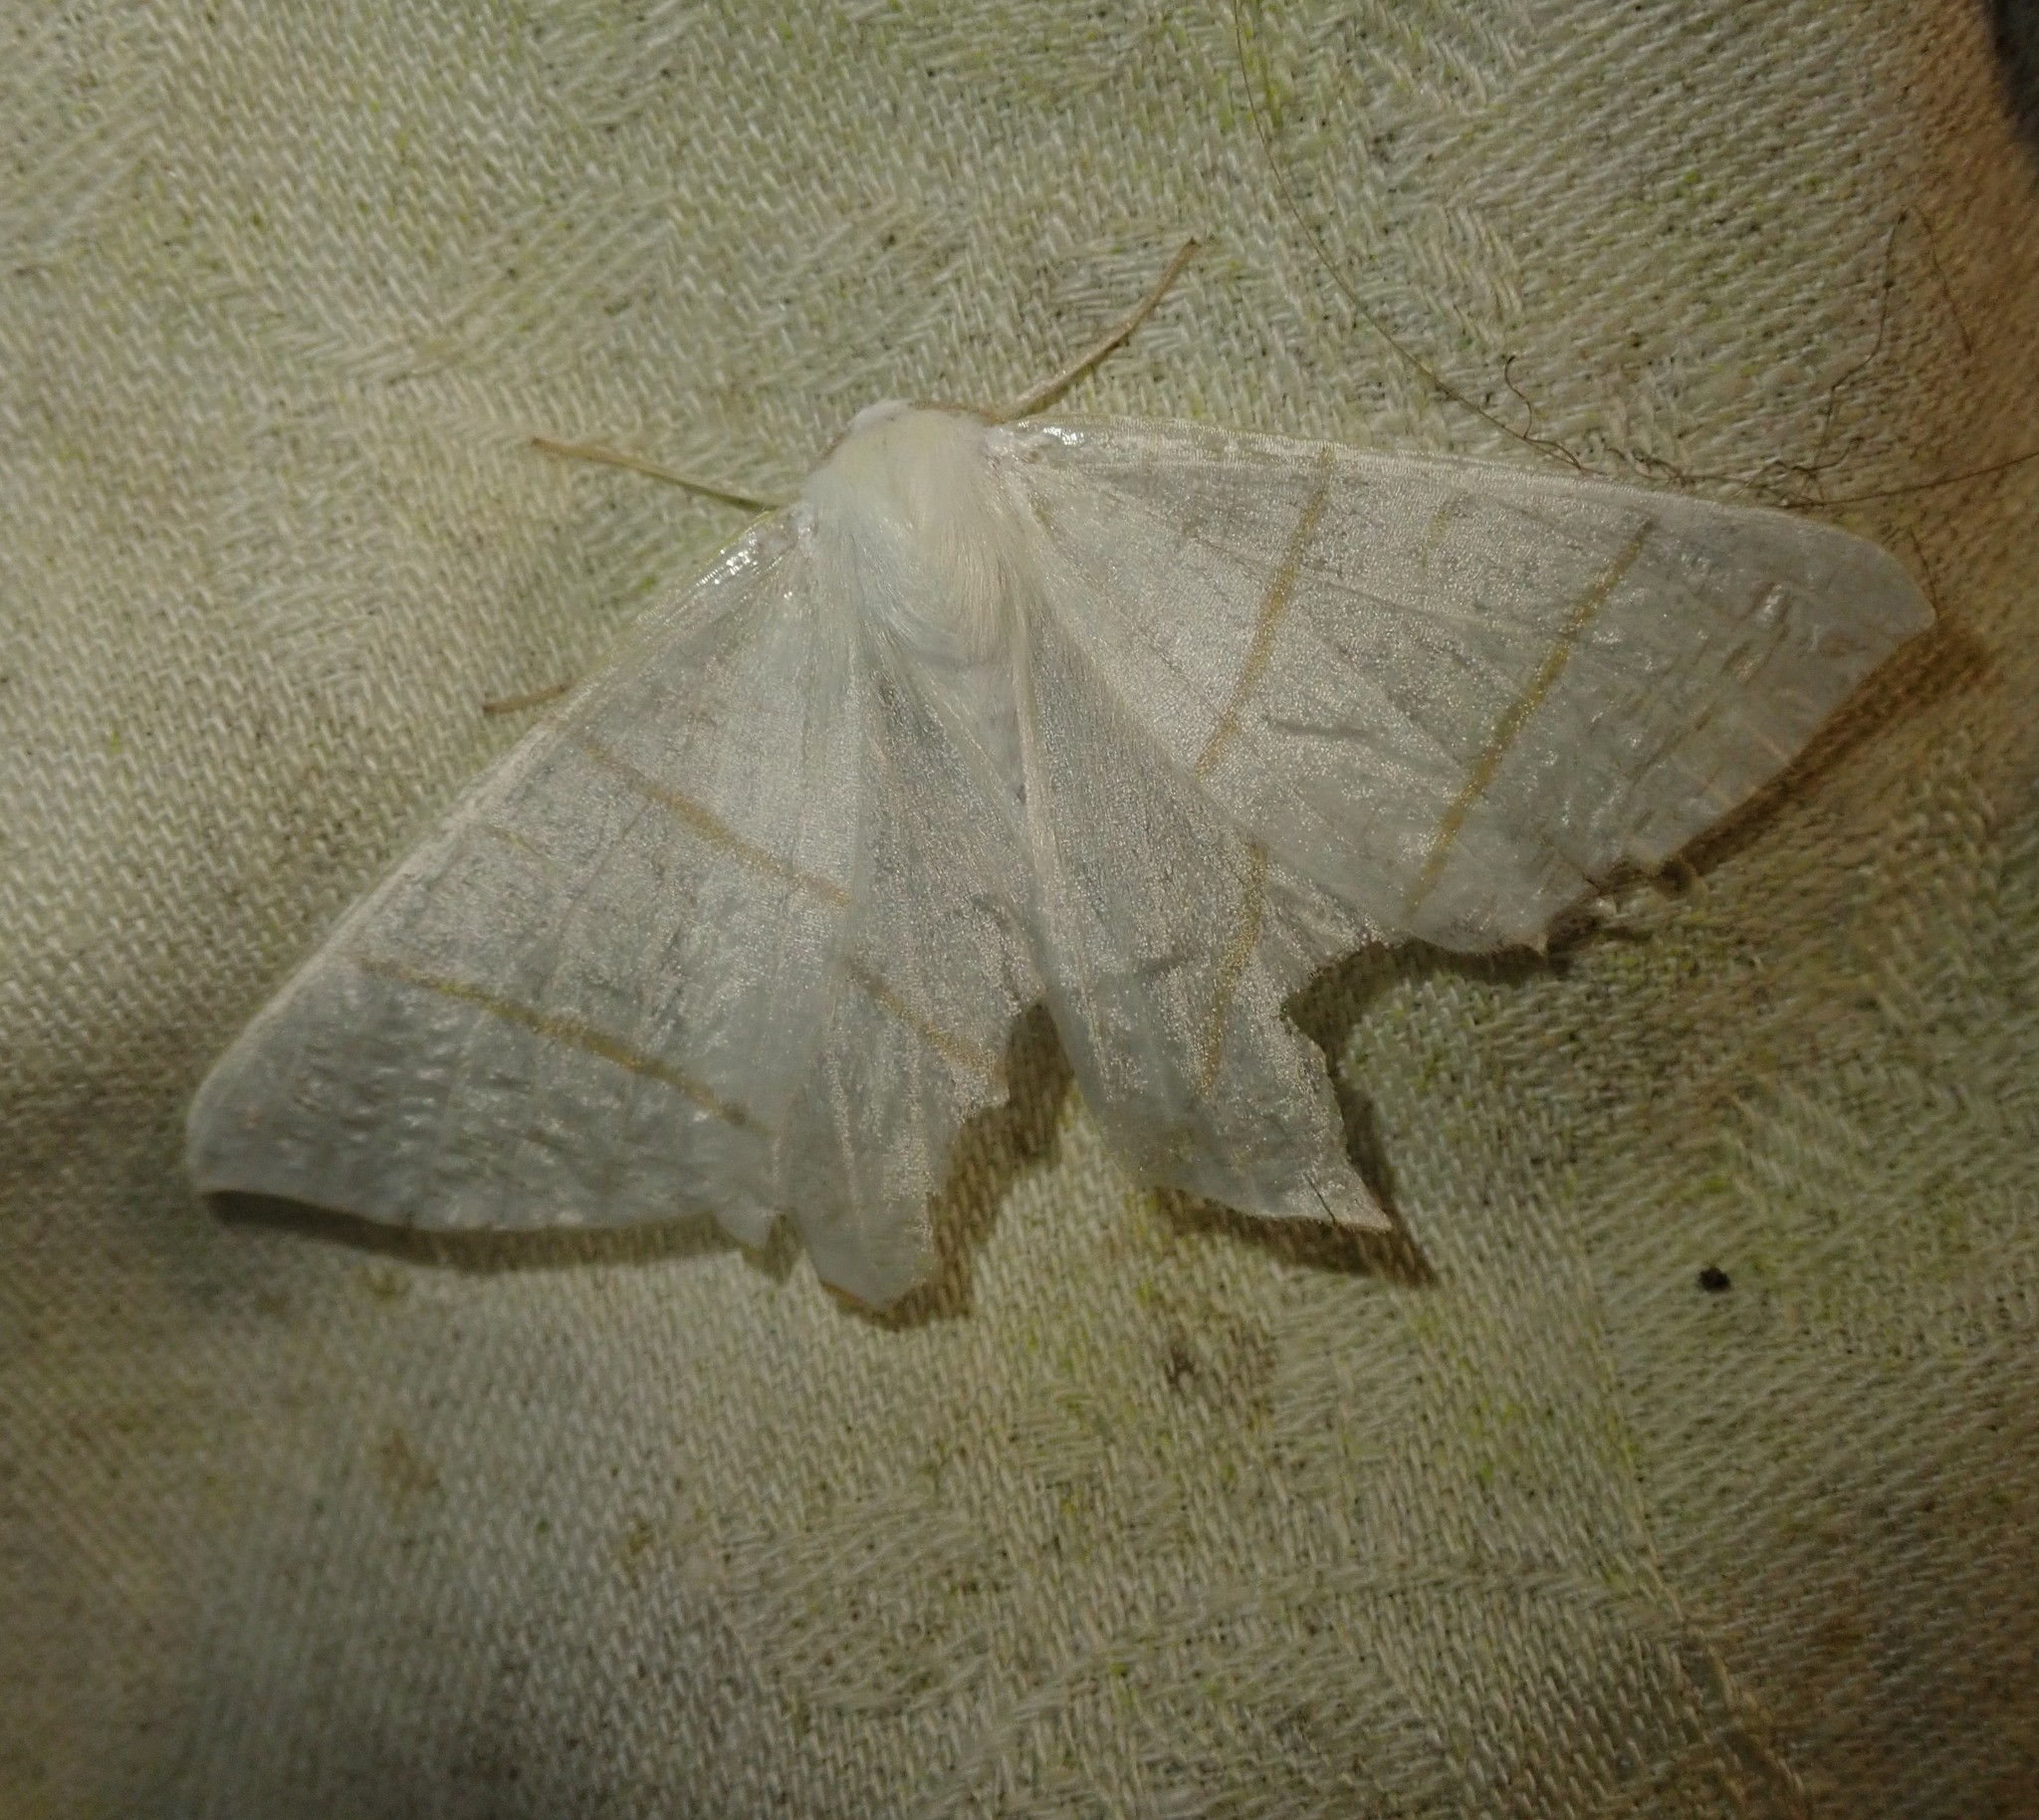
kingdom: Animalia
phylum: Arthropoda
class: Insecta
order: Lepidoptera
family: Geometridae
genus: Ourapteryx
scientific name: Ourapteryx sambucaria
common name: Swallow-tailed moth
